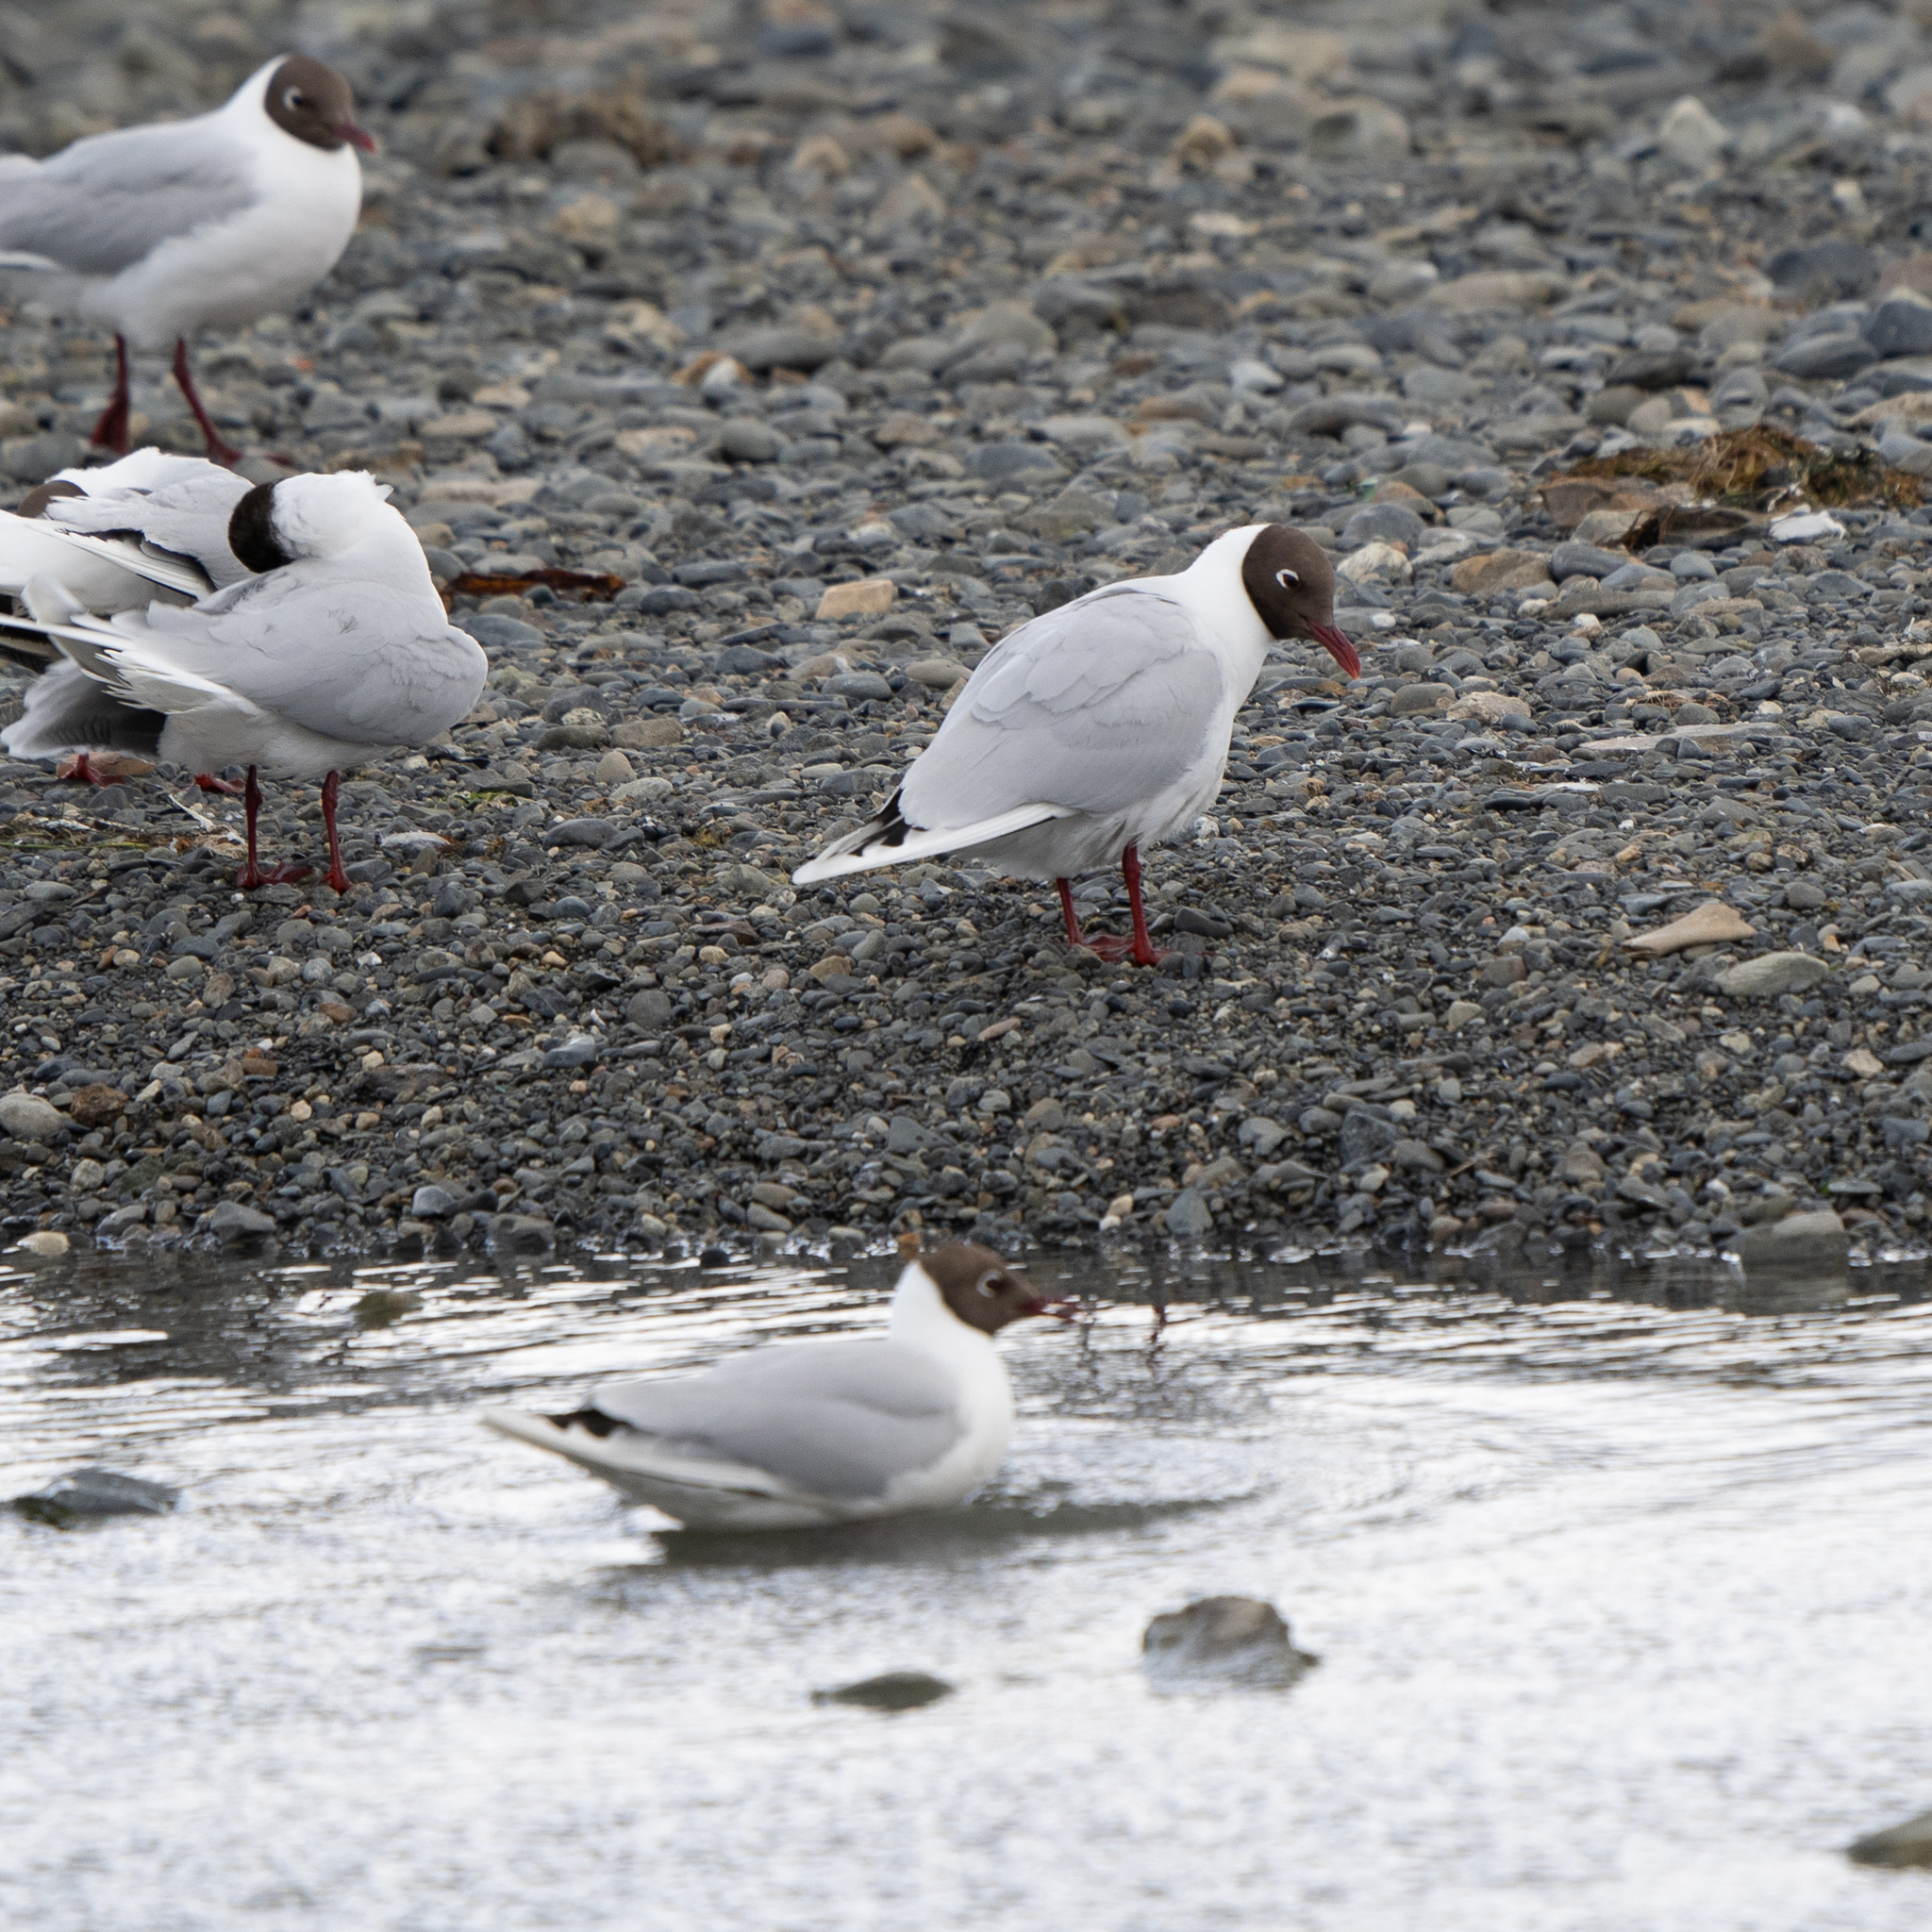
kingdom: Animalia
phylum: Chordata
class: Aves
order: Charadriiformes
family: Laridae
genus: Chroicocephalus
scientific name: Chroicocephalus maculipennis
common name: Brown-hooded gull
